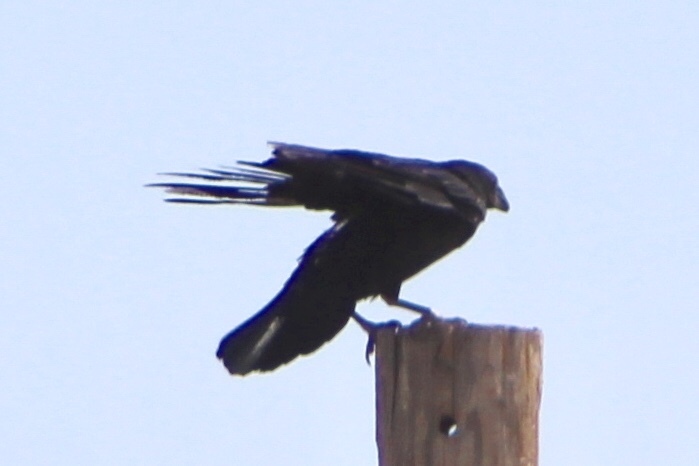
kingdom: Animalia
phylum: Chordata
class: Aves
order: Passeriformes
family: Corvidae
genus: Corvus
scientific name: Corvus corax
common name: Common raven
